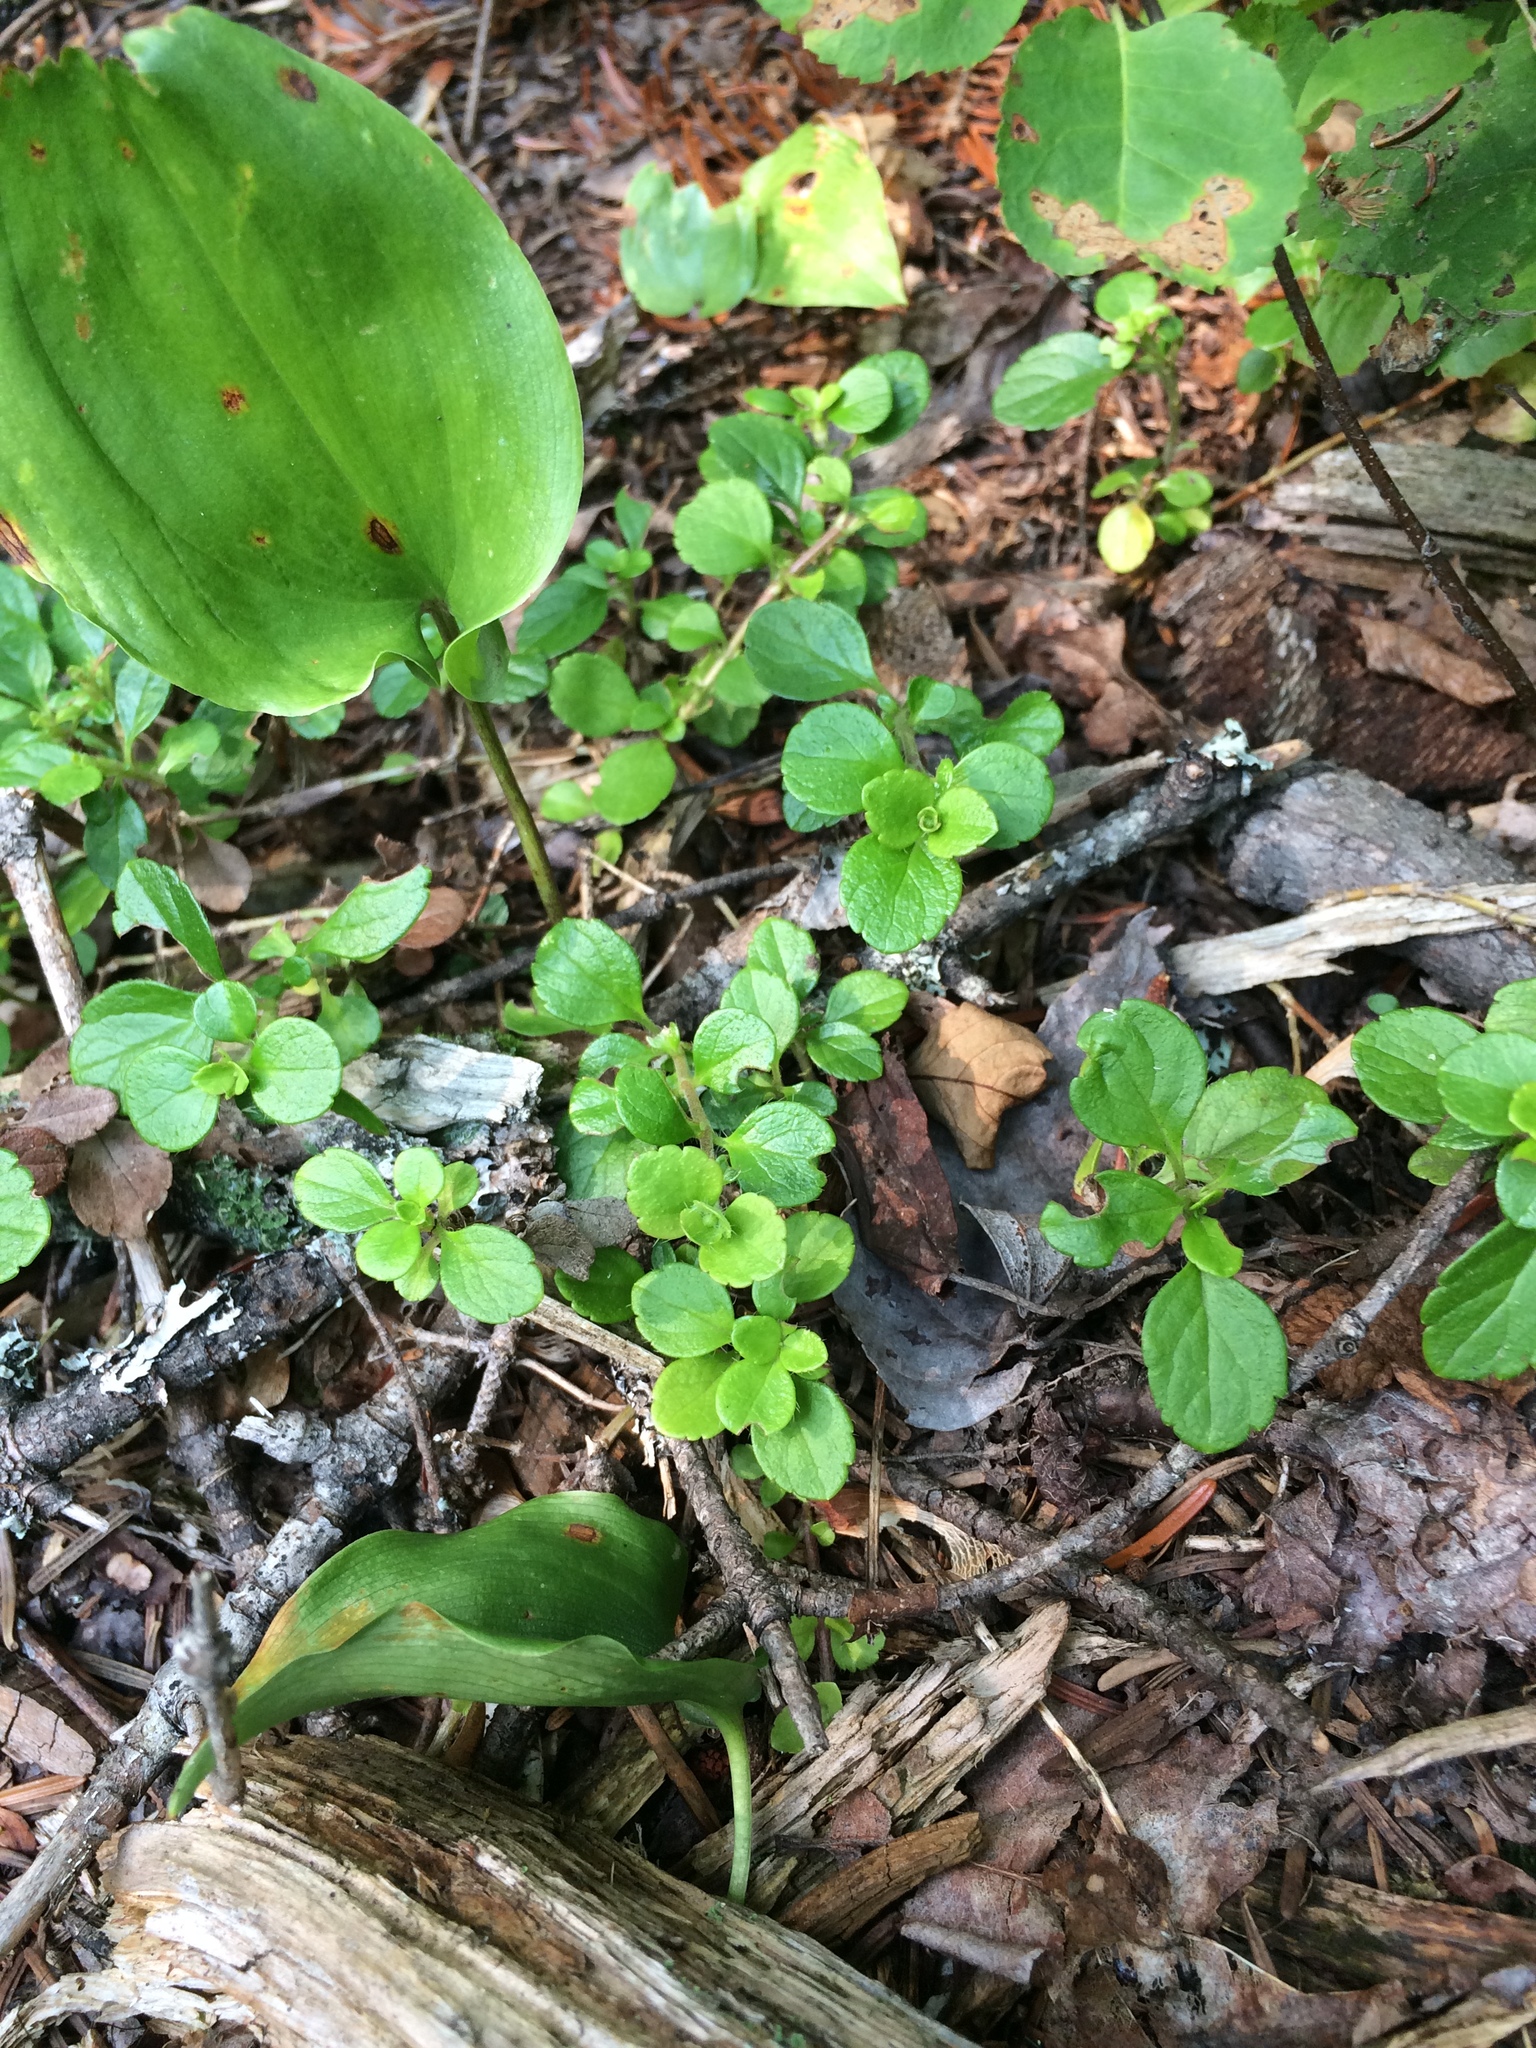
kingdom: Plantae
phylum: Tracheophyta
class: Magnoliopsida
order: Dipsacales
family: Caprifoliaceae
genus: Linnaea
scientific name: Linnaea borealis
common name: Twinflower
